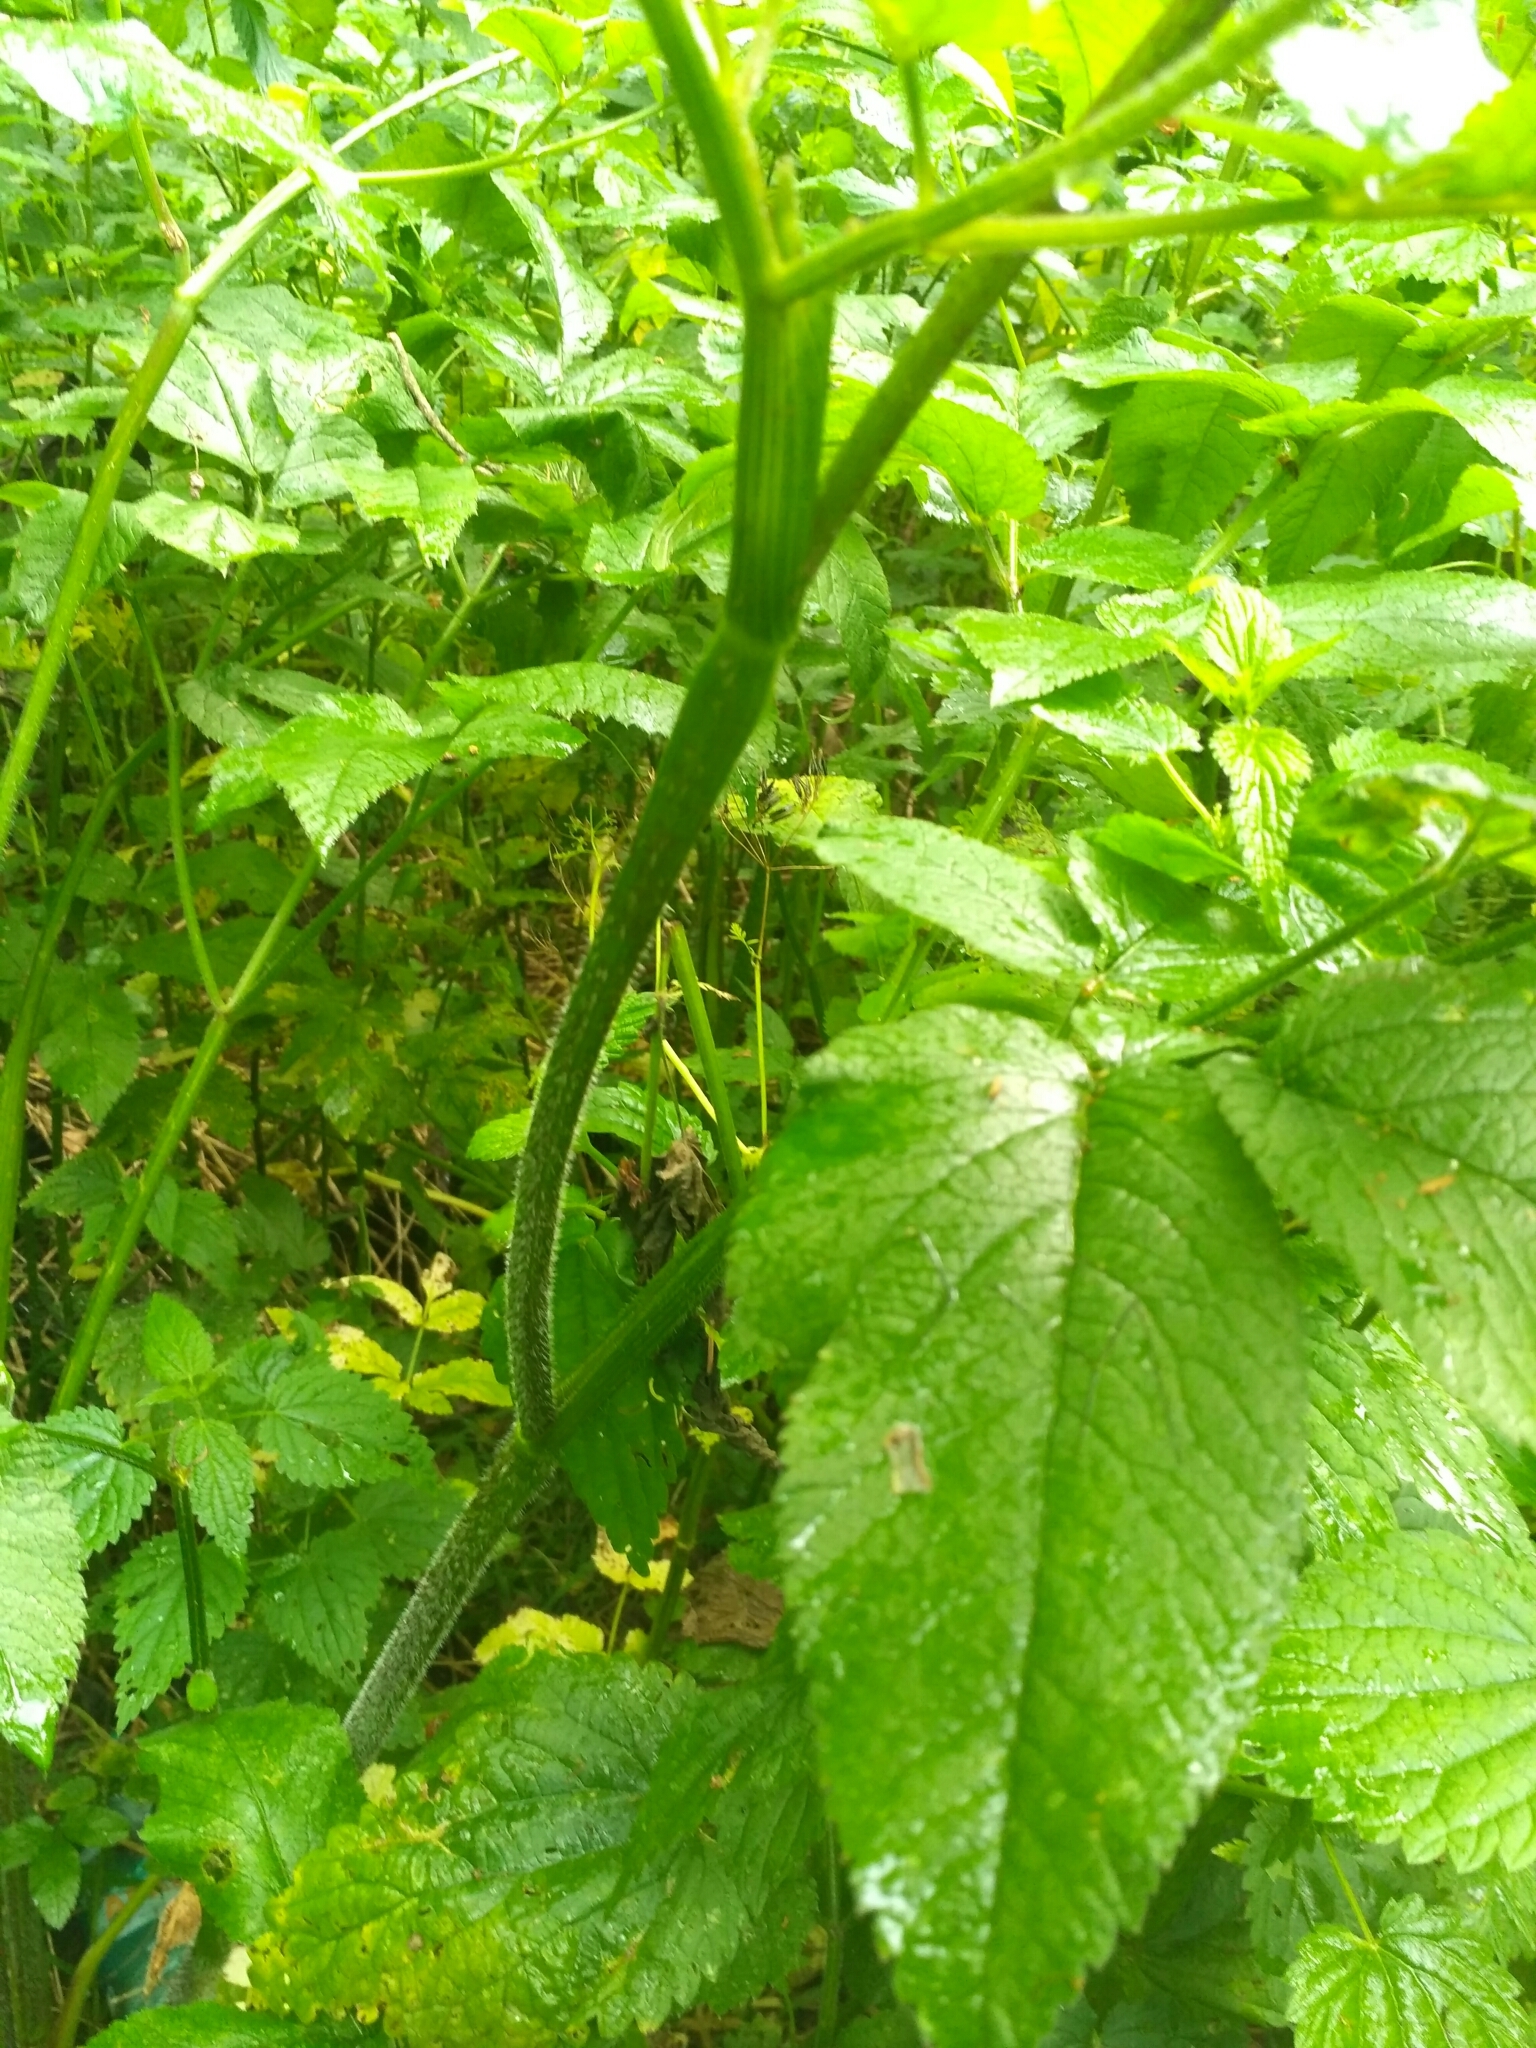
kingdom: Plantae
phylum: Tracheophyta
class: Magnoliopsida
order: Apiales
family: Apiaceae
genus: Chaerophyllum
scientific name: Chaerophyllum aromaticum
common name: Broadleaf chervil
